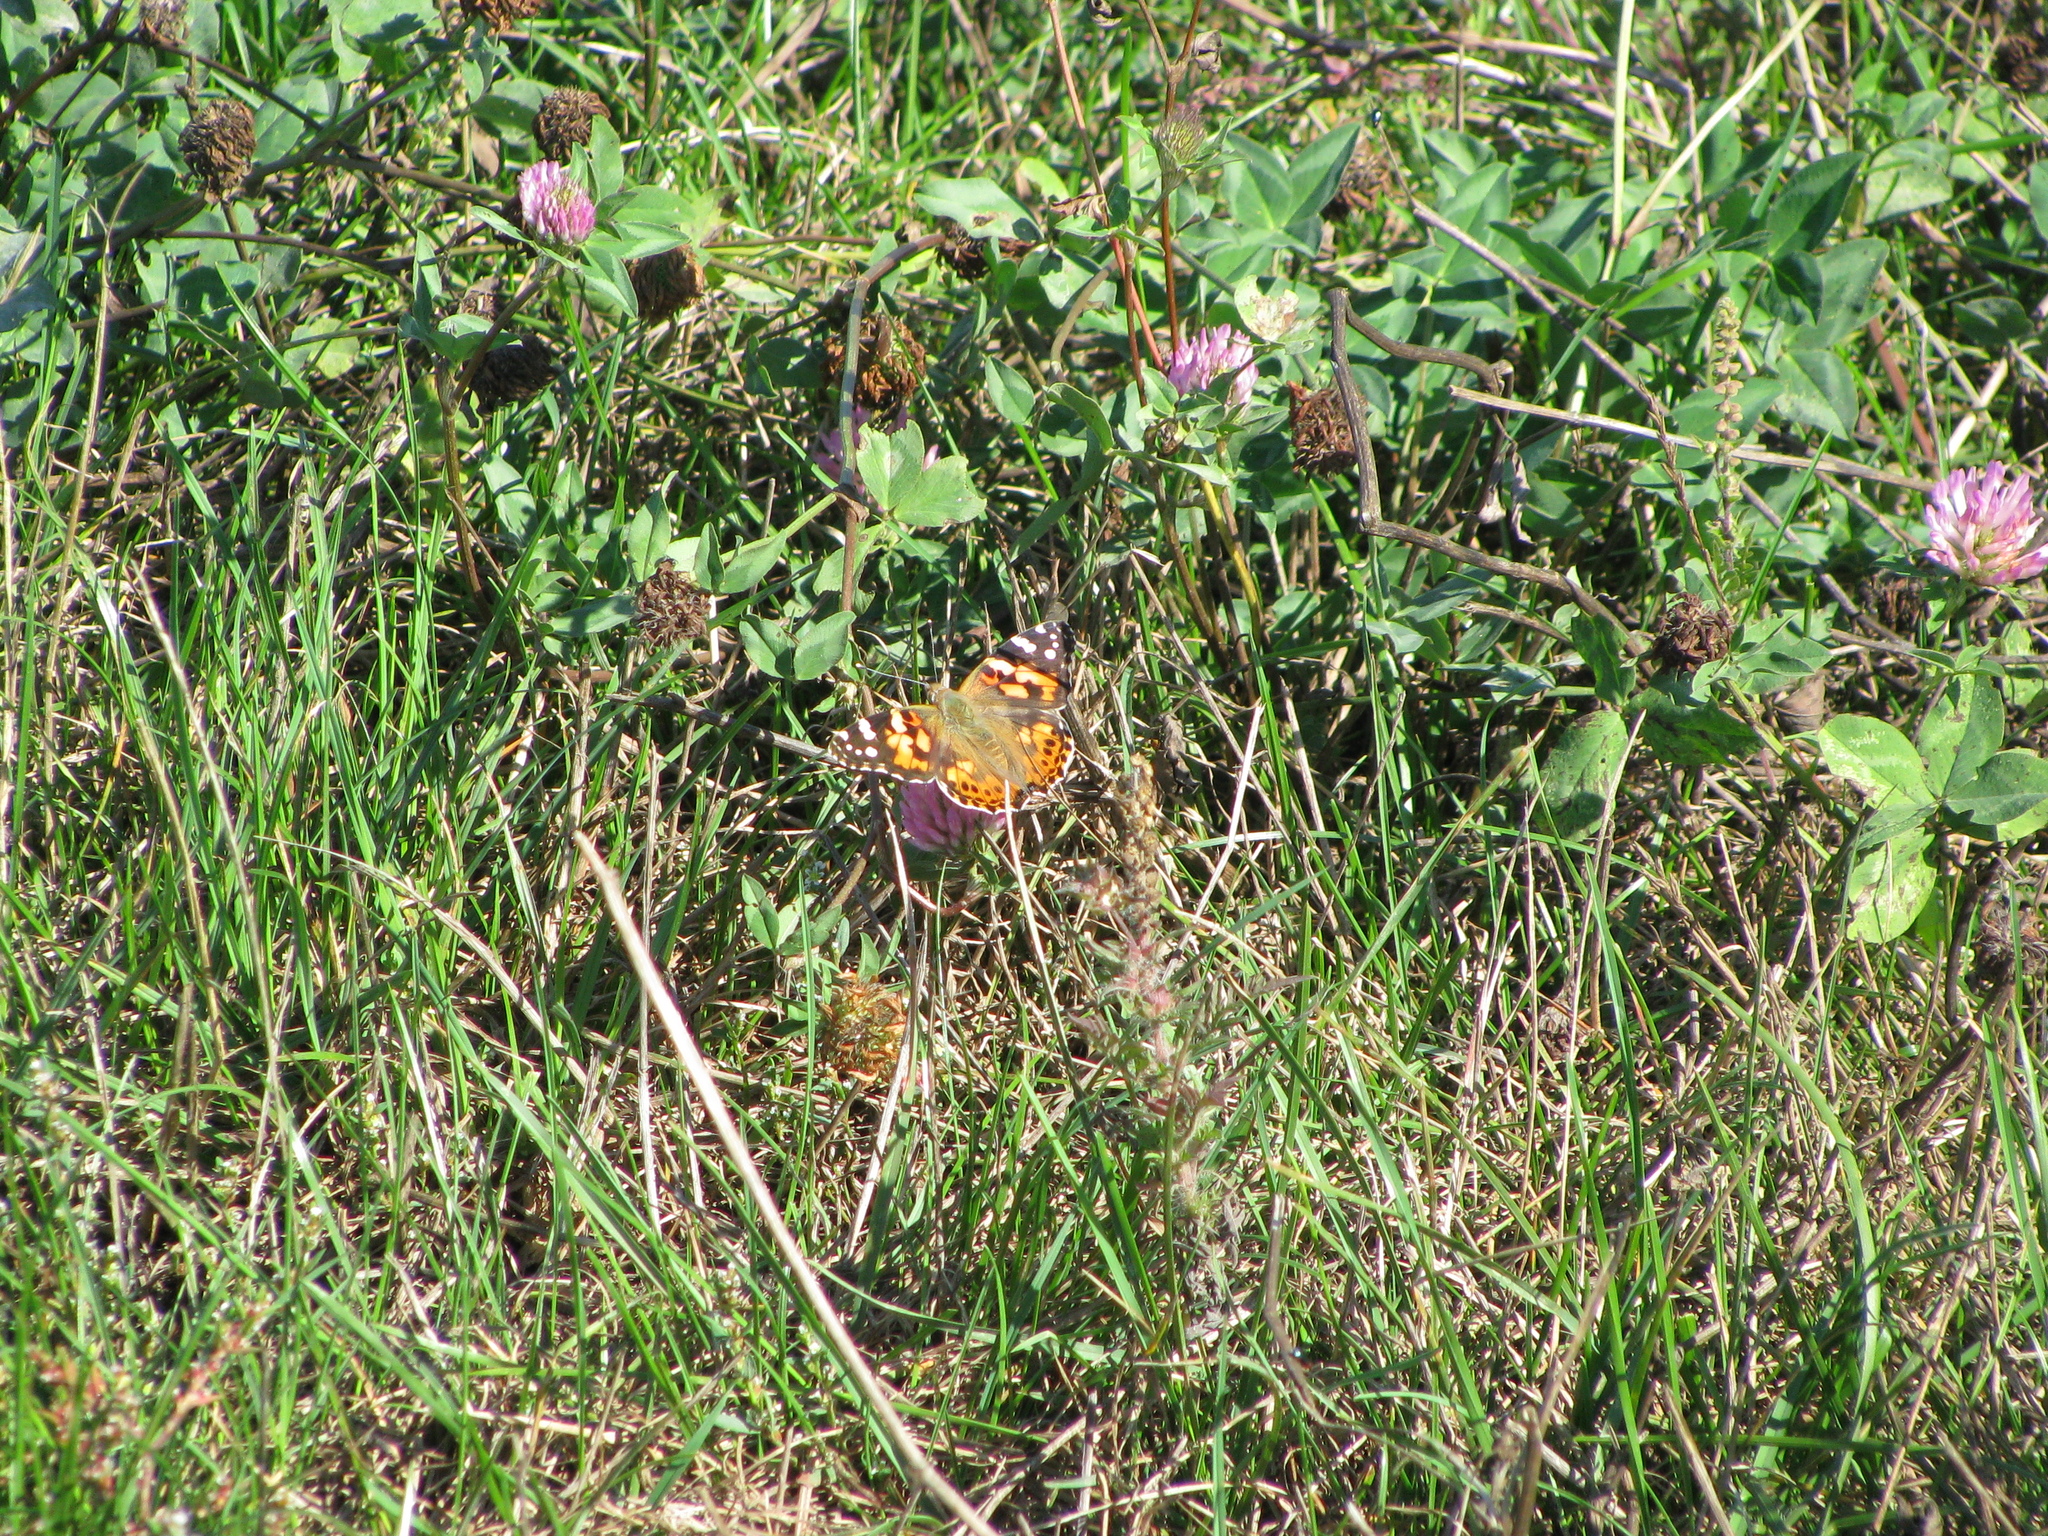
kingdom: Animalia
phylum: Arthropoda
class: Insecta
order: Lepidoptera
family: Nymphalidae
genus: Vanessa
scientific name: Vanessa cardui
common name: Painted lady
